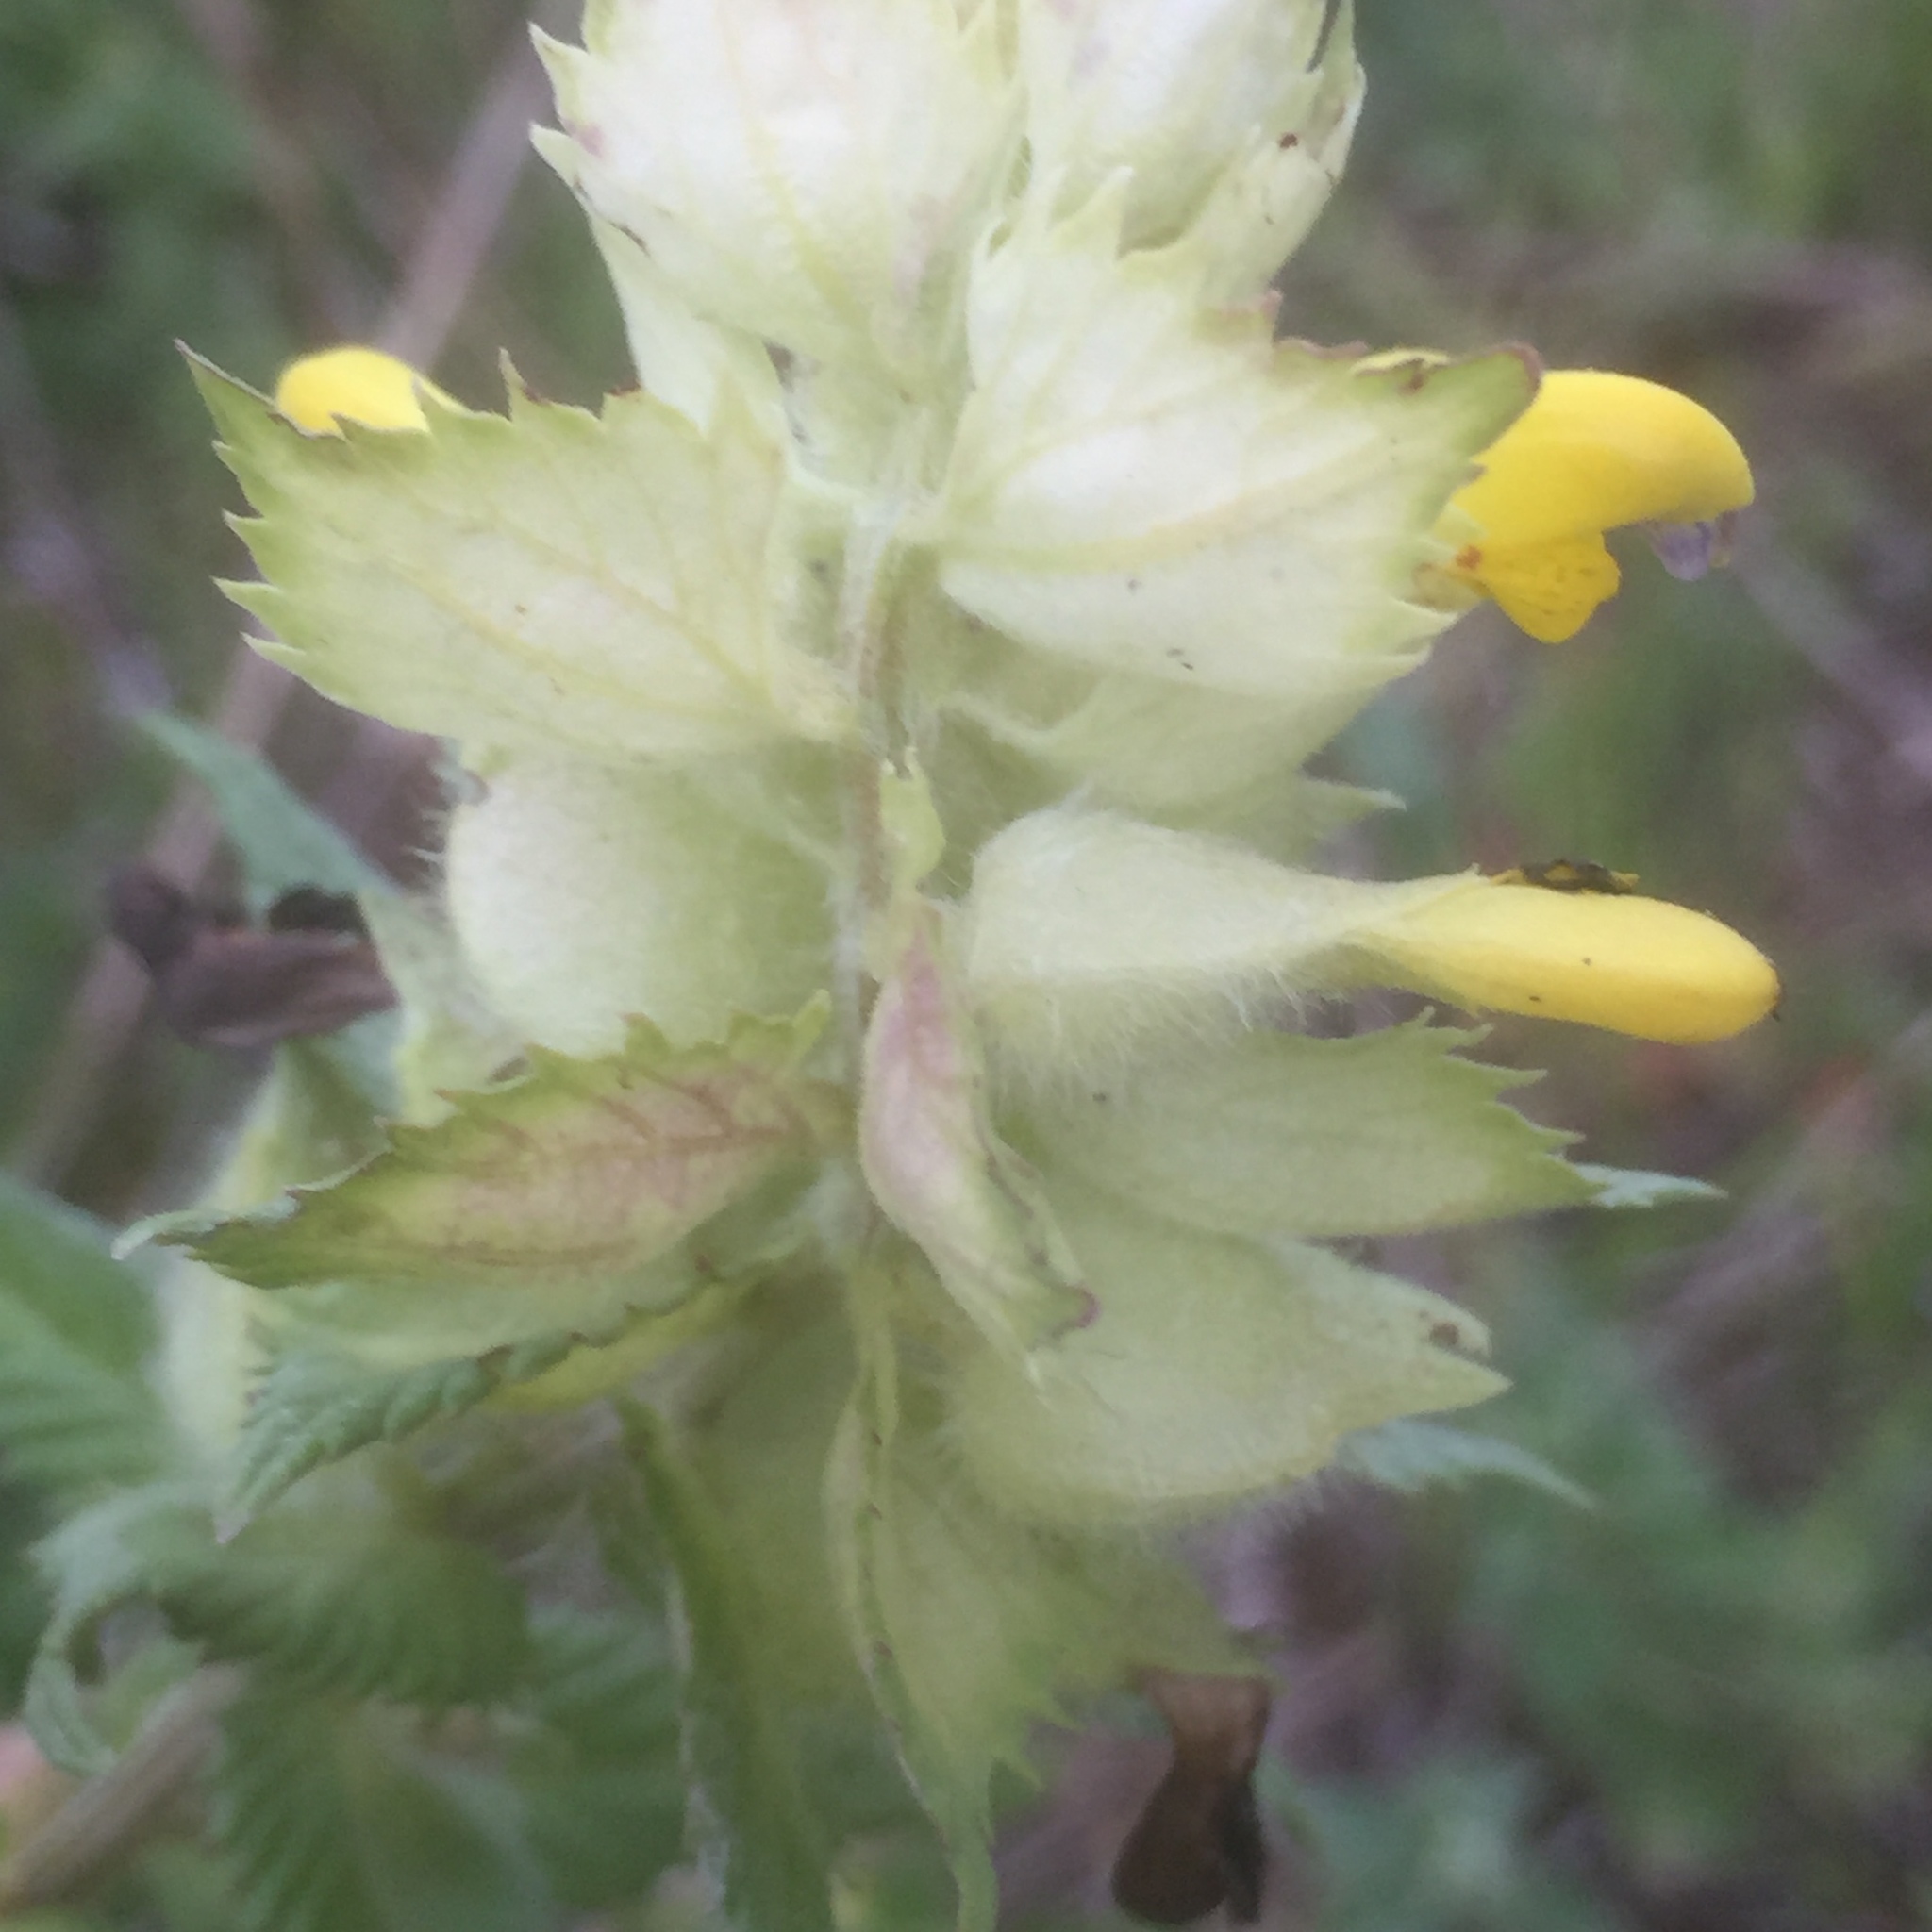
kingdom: Plantae
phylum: Tracheophyta
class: Magnoliopsida
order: Lamiales
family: Orobanchaceae
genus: Rhinanthus
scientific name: Rhinanthus alectorolophus
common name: Greater yellow-rattle
